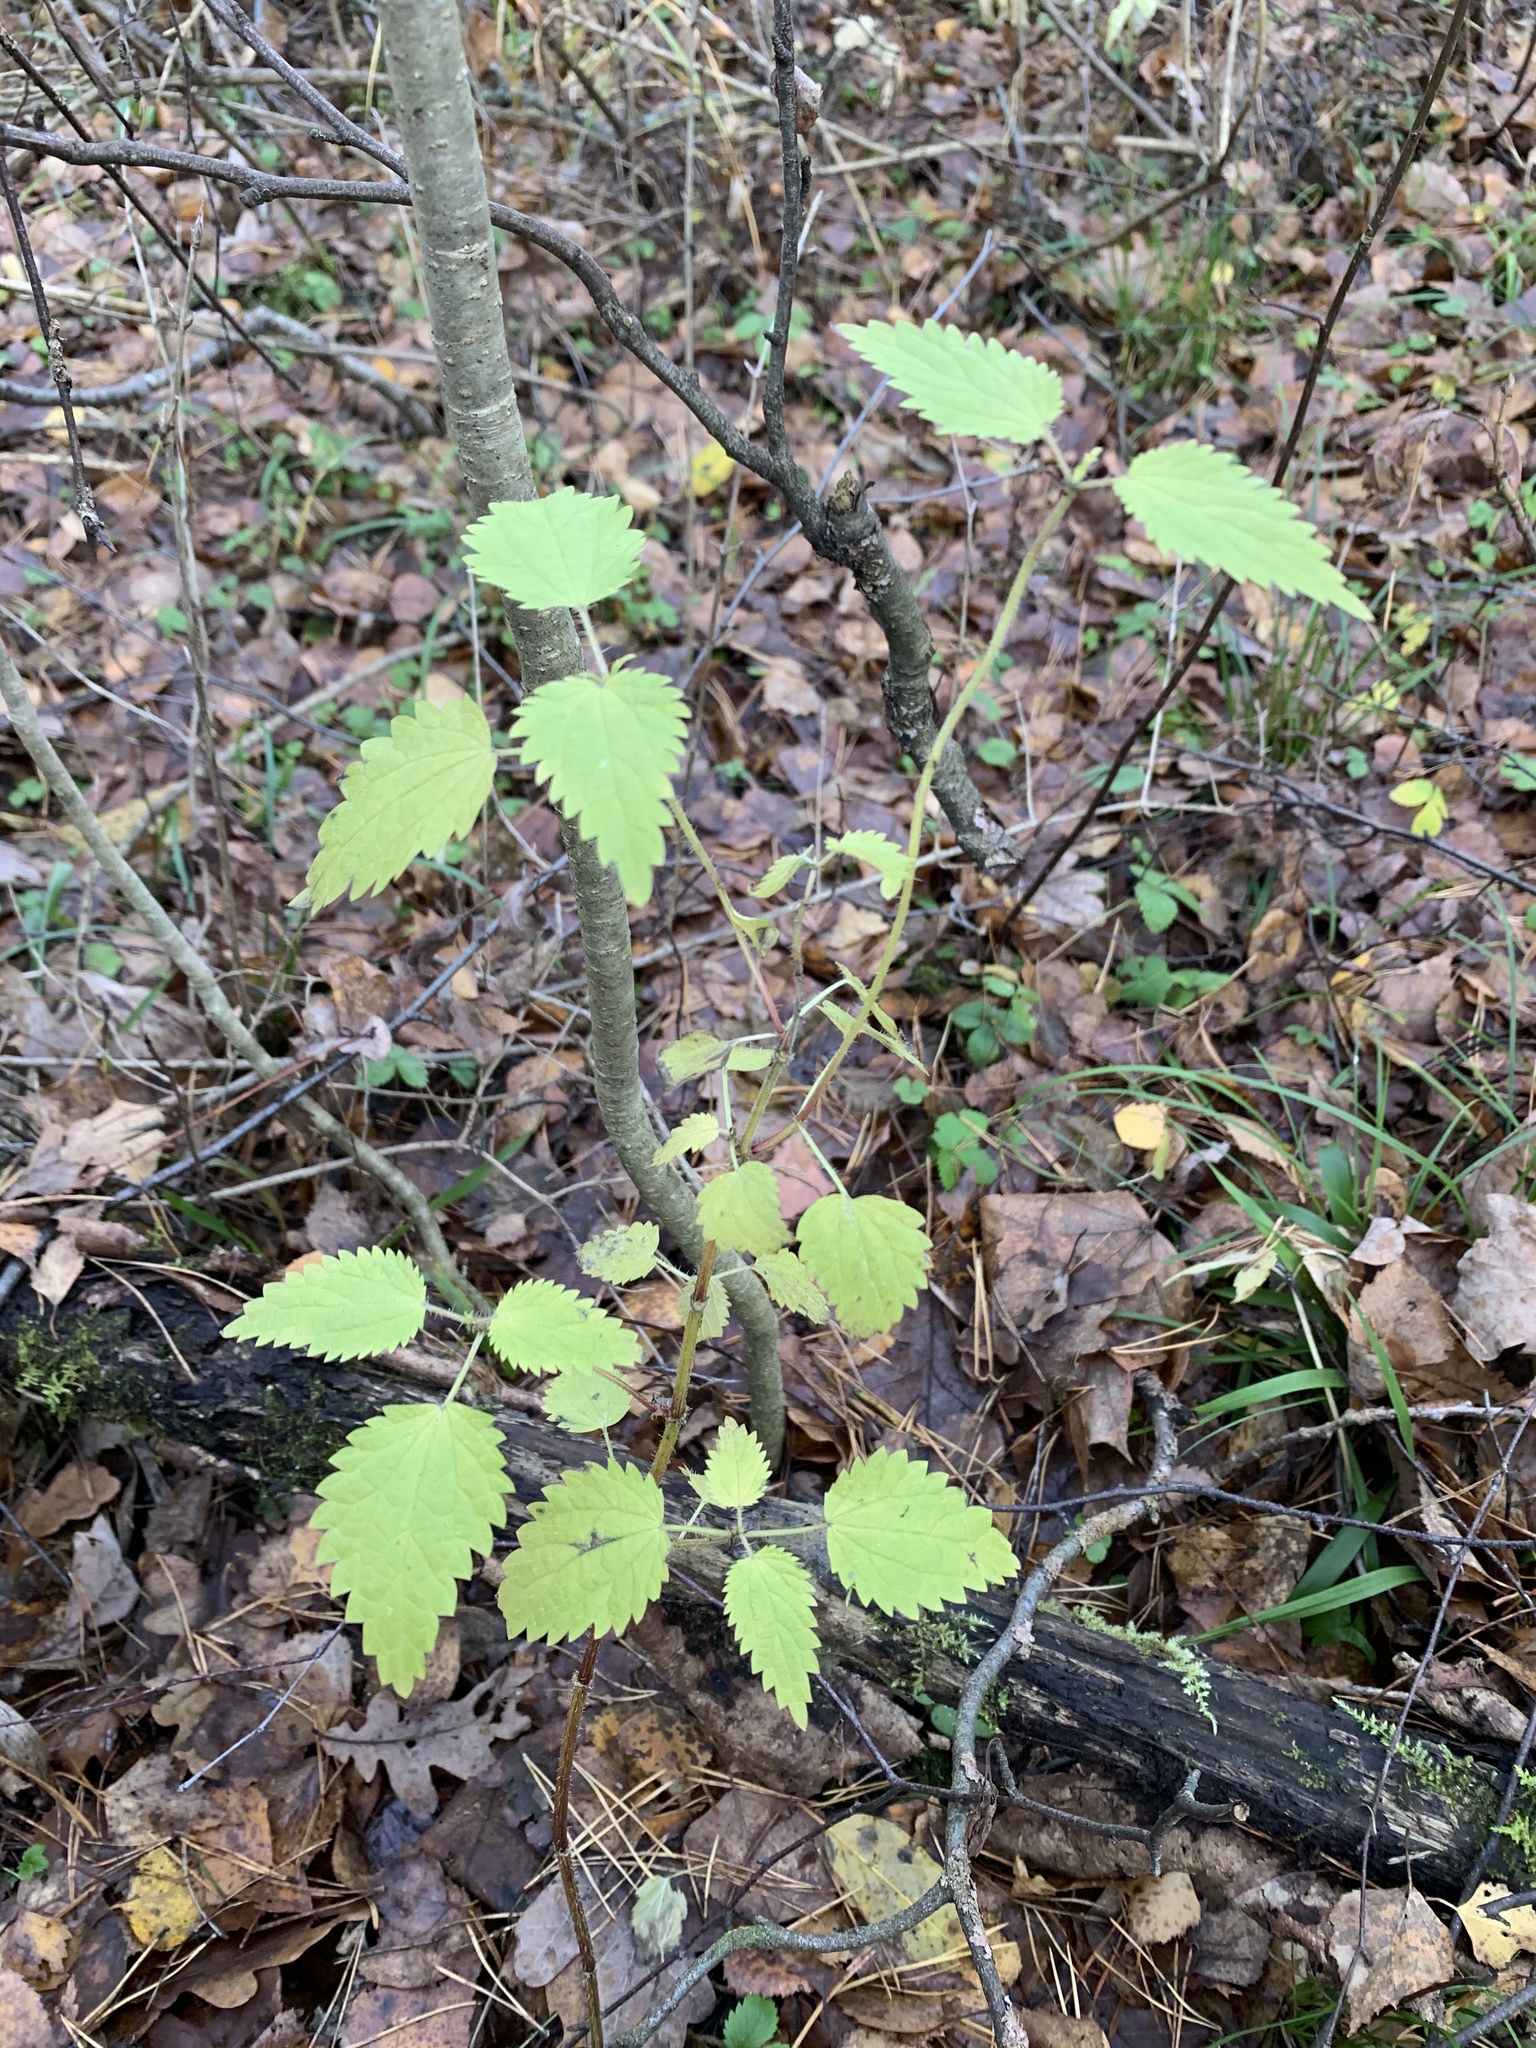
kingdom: Plantae
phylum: Tracheophyta
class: Magnoliopsida
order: Rosales
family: Urticaceae
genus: Urtica
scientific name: Urtica dioica
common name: Common nettle
